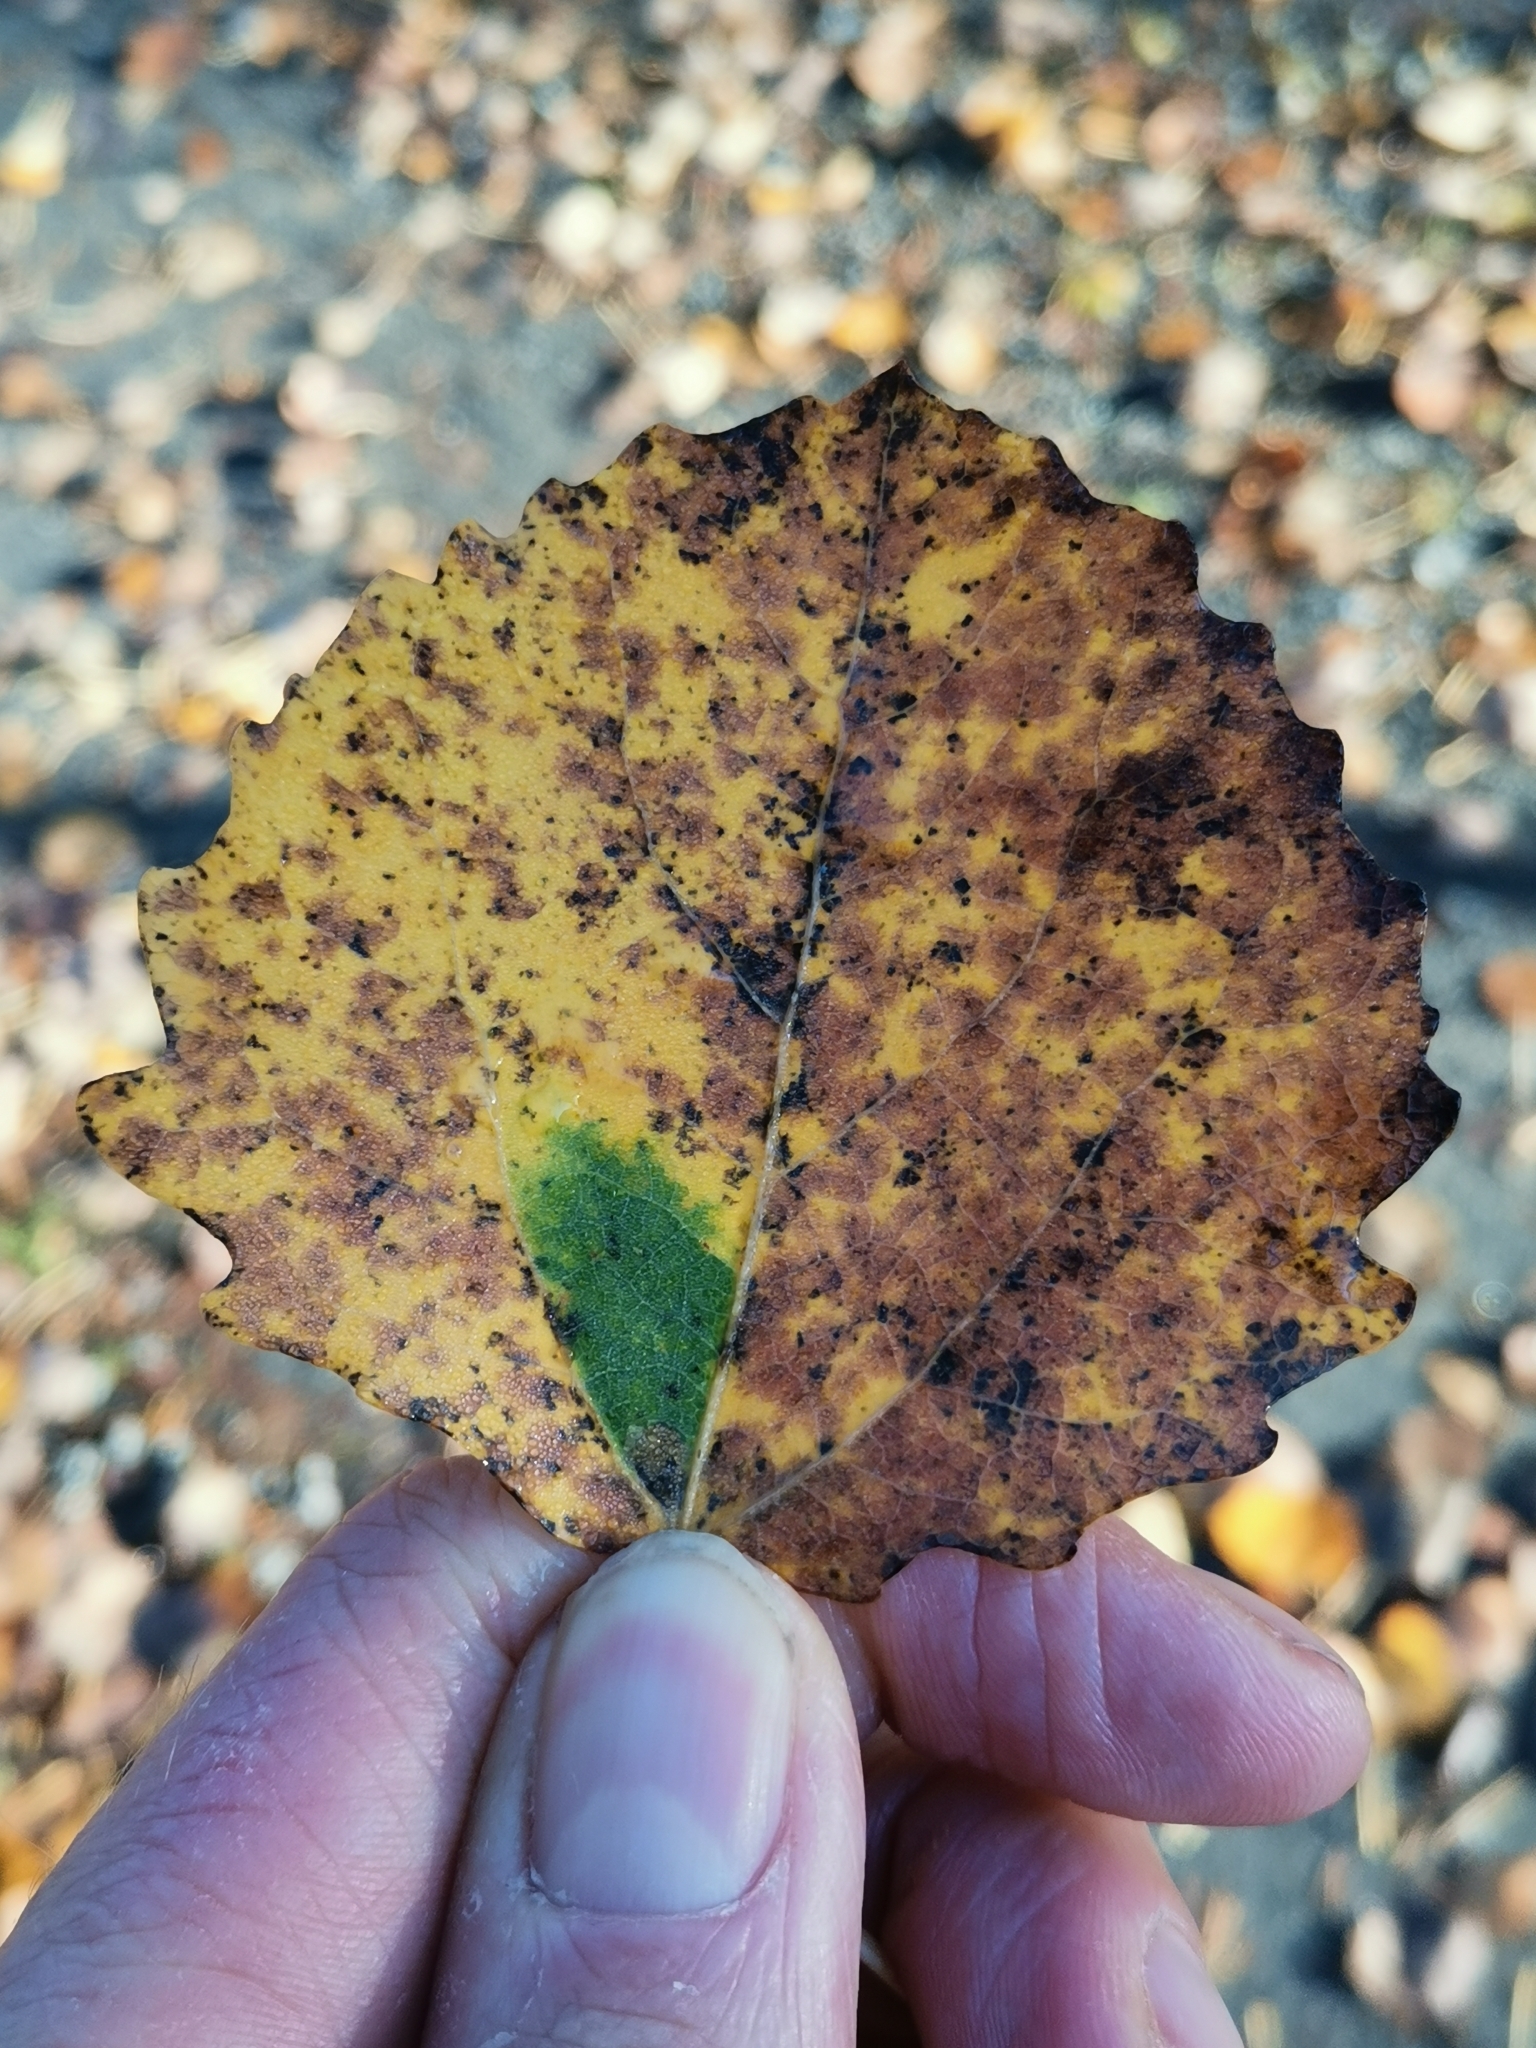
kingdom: Animalia
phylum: Arthropoda
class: Insecta
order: Lepidoptera
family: Nepticulidae
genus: Ectoedemia
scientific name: Ectoedemia argyropeza
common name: Virgin pigmy
